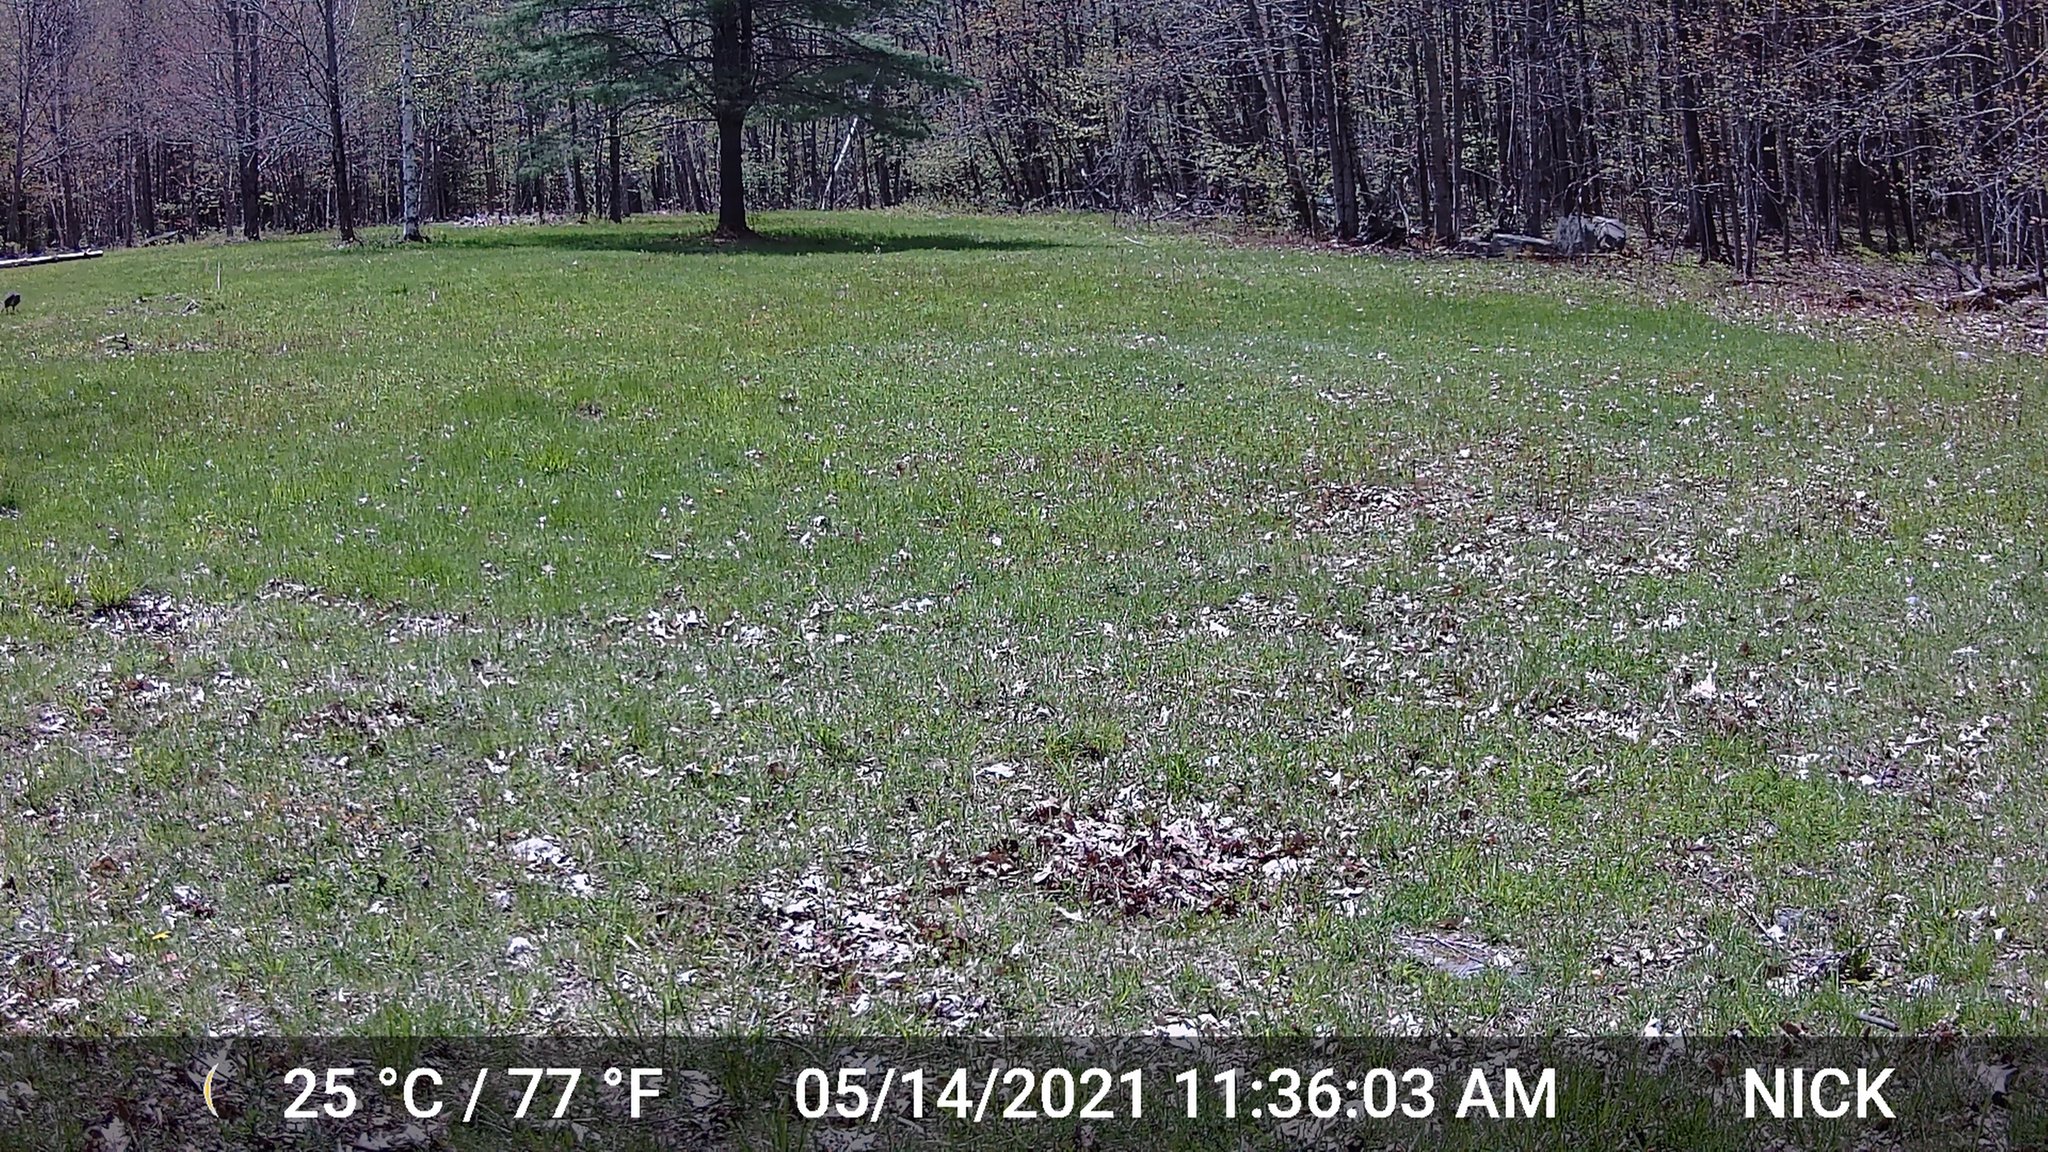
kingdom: Animalia
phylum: Chordata
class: Aves
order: Galliformes
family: Phasianidae
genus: Meleagris
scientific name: Meleagris gallopavo
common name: Wild turkey
